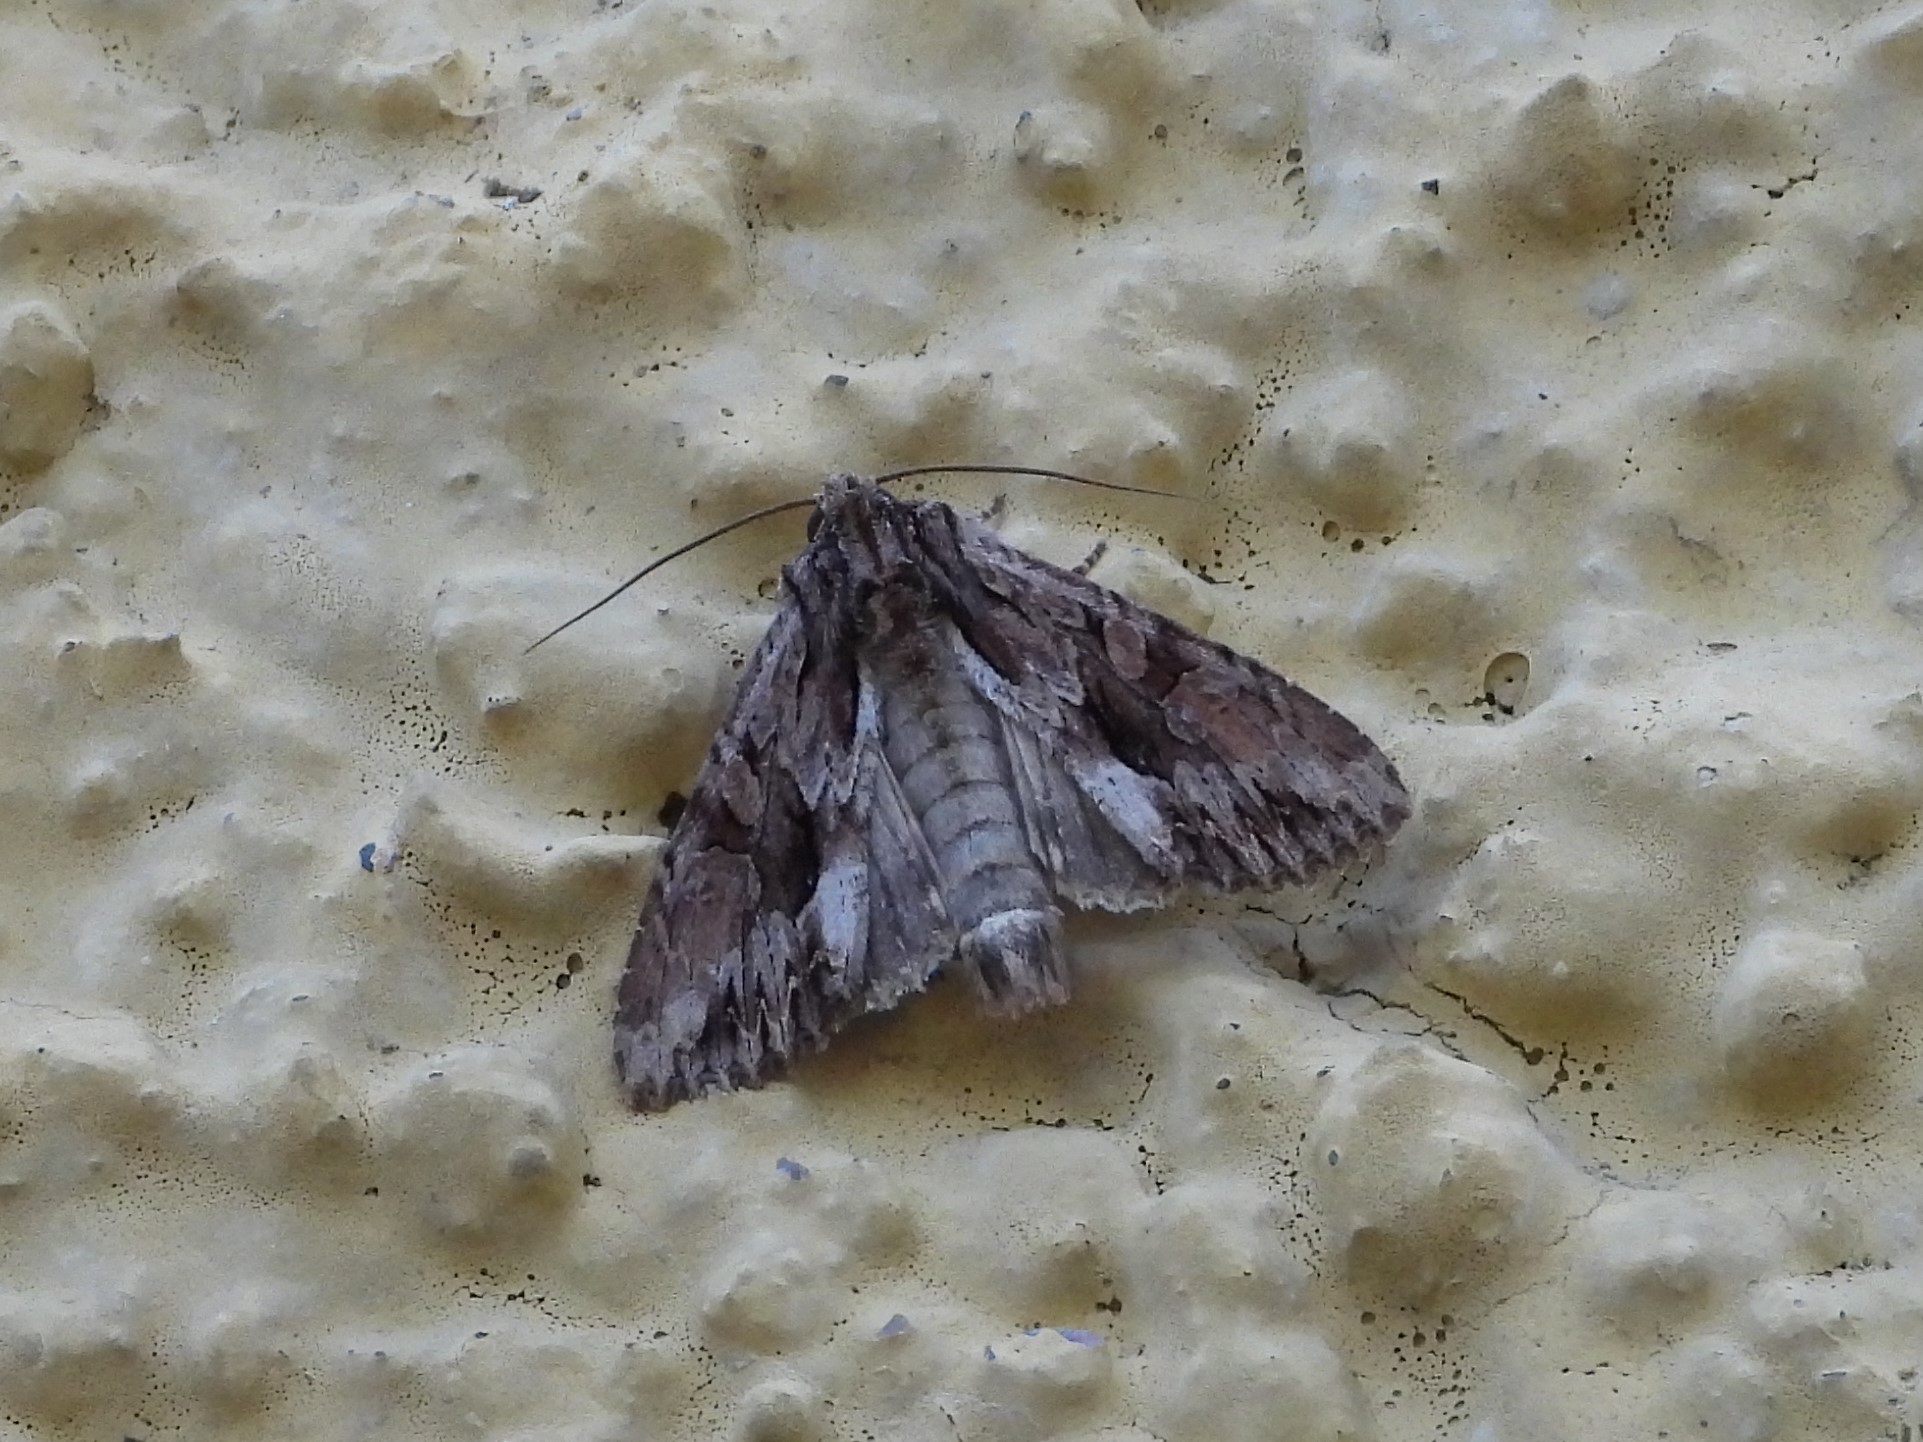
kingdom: Animalia
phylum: Arthropoda
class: Insecta
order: Lepidoptera
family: Noctuidae
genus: Apamea
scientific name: Apamea monoglypha
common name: Dark arches
